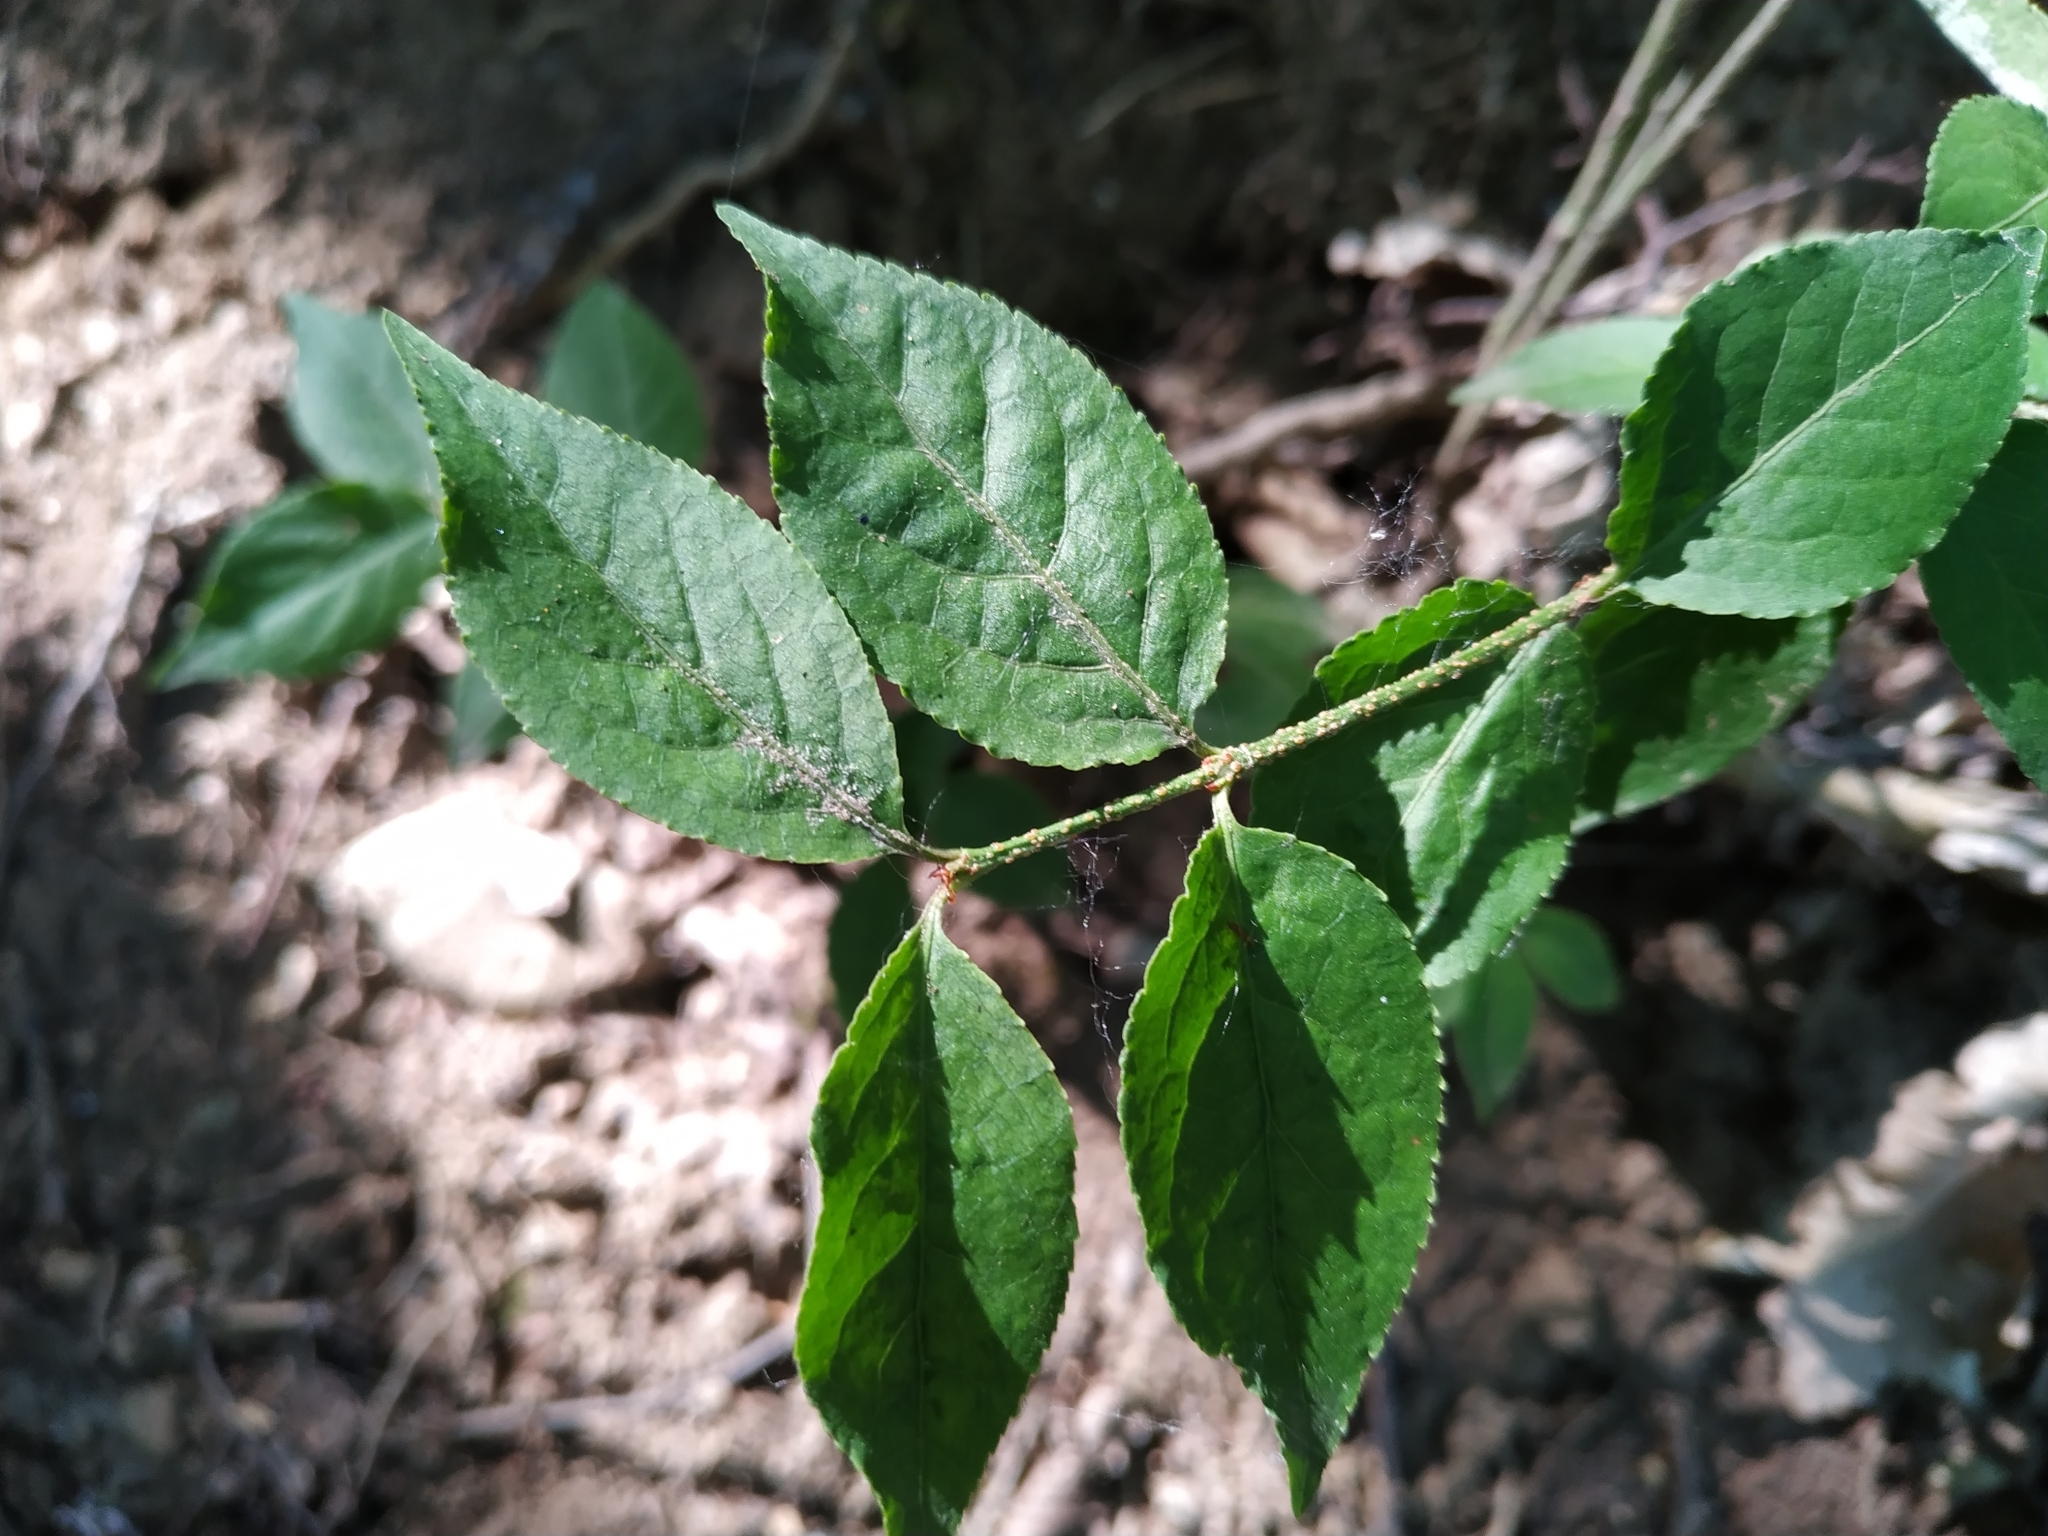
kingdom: Plantae
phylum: Tracheophyta
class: Magnoliopsida
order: Celastrales
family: Celastraceae
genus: Euonymus
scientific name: Euonymus verrucosus
